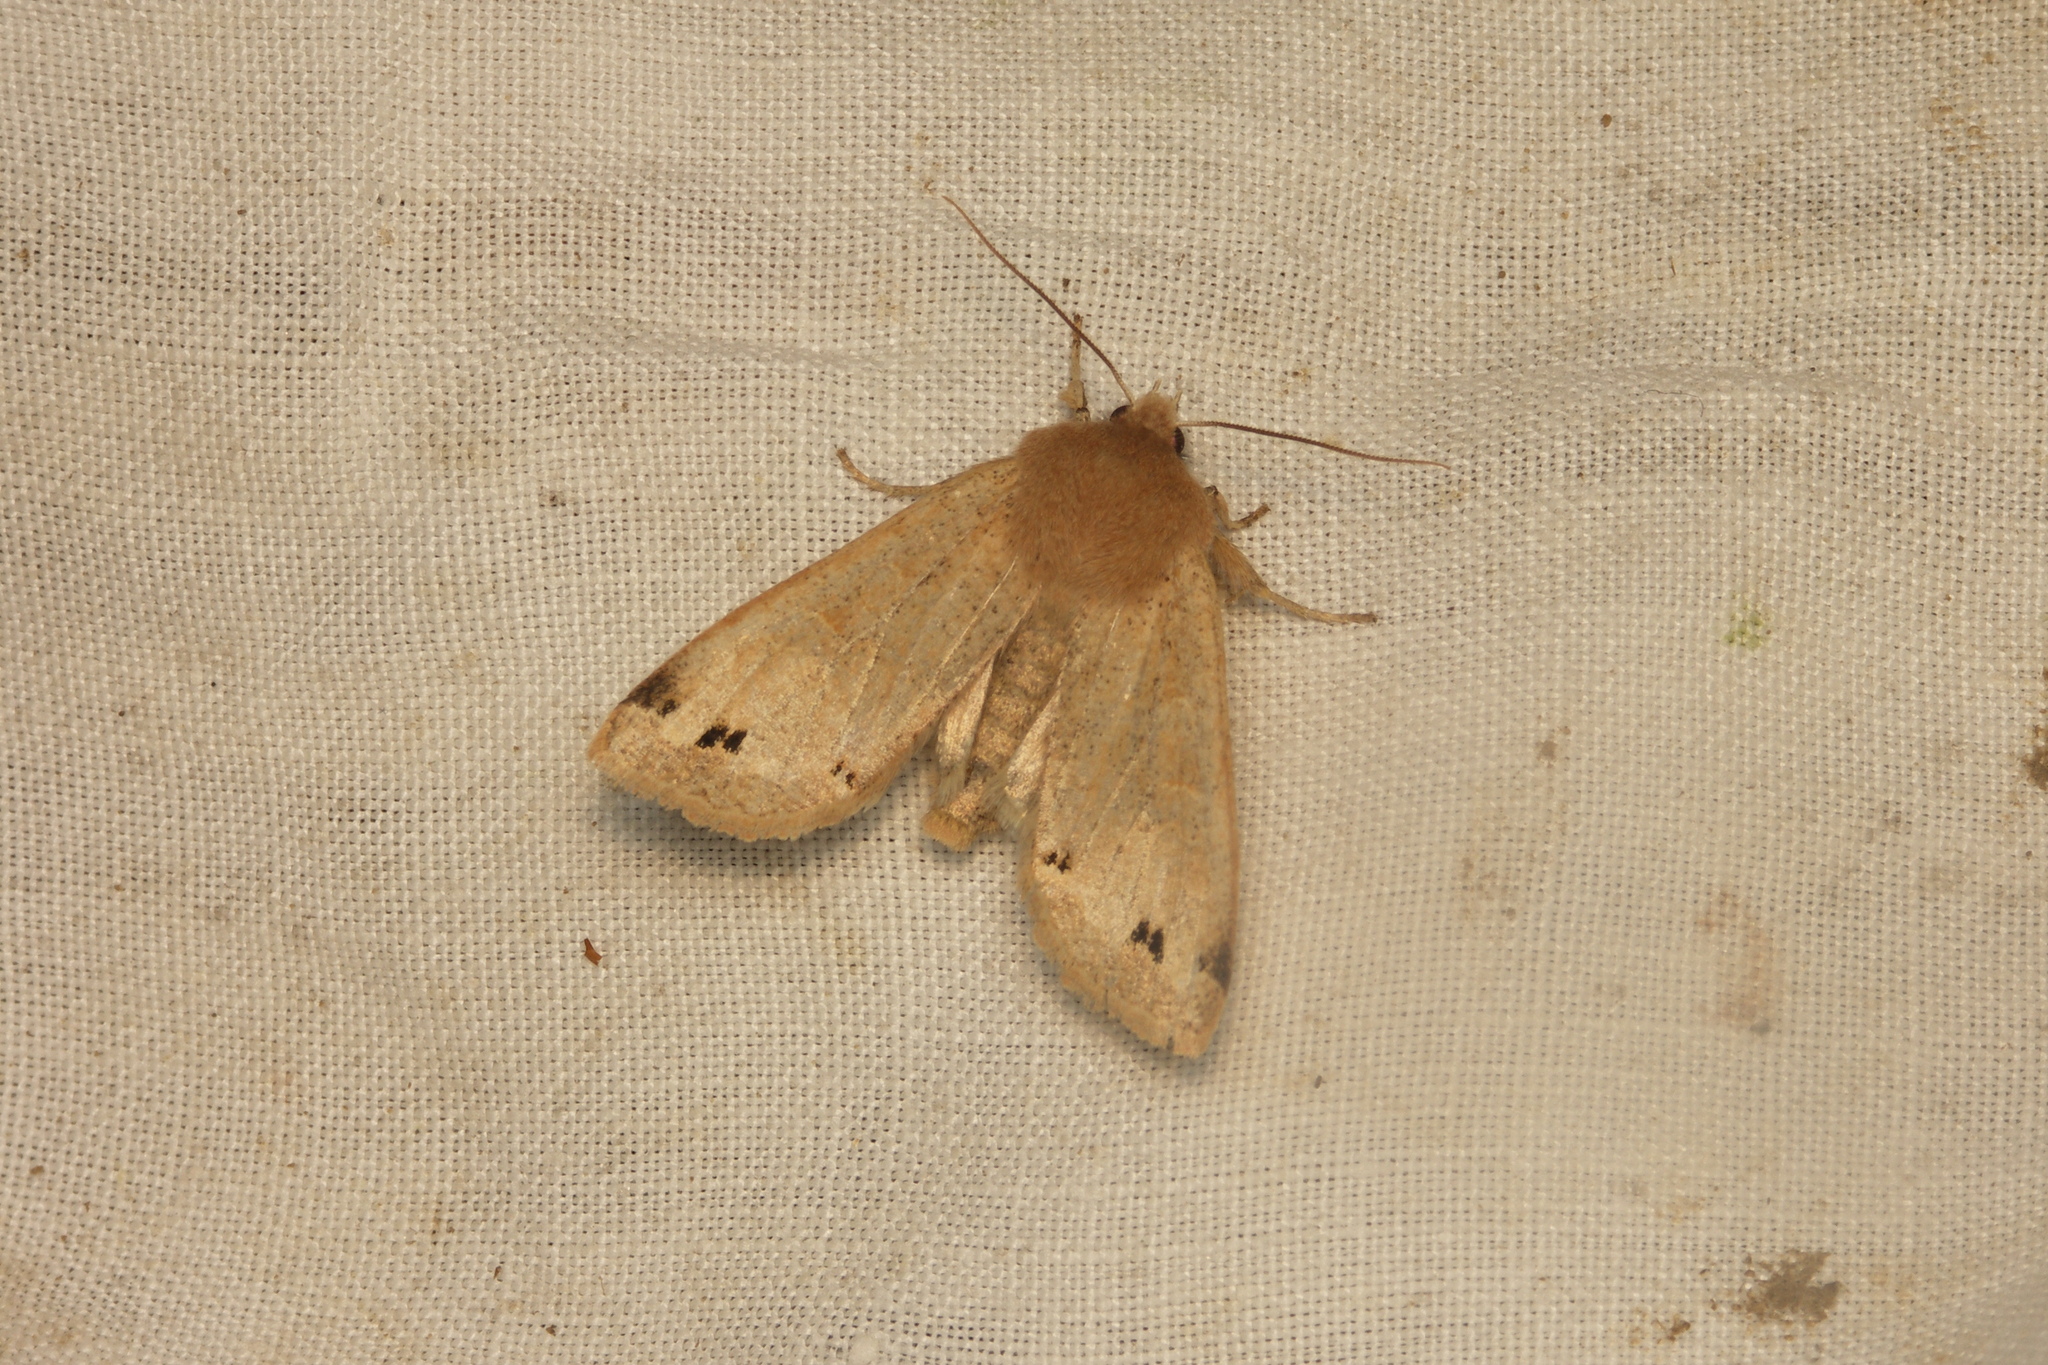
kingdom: Animalia
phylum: Arthropoda
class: Insecta
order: Lepidoptera
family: Noctuidae
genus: Anorthoa
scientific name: Anorthoa munda
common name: Twin-spotted quaker
